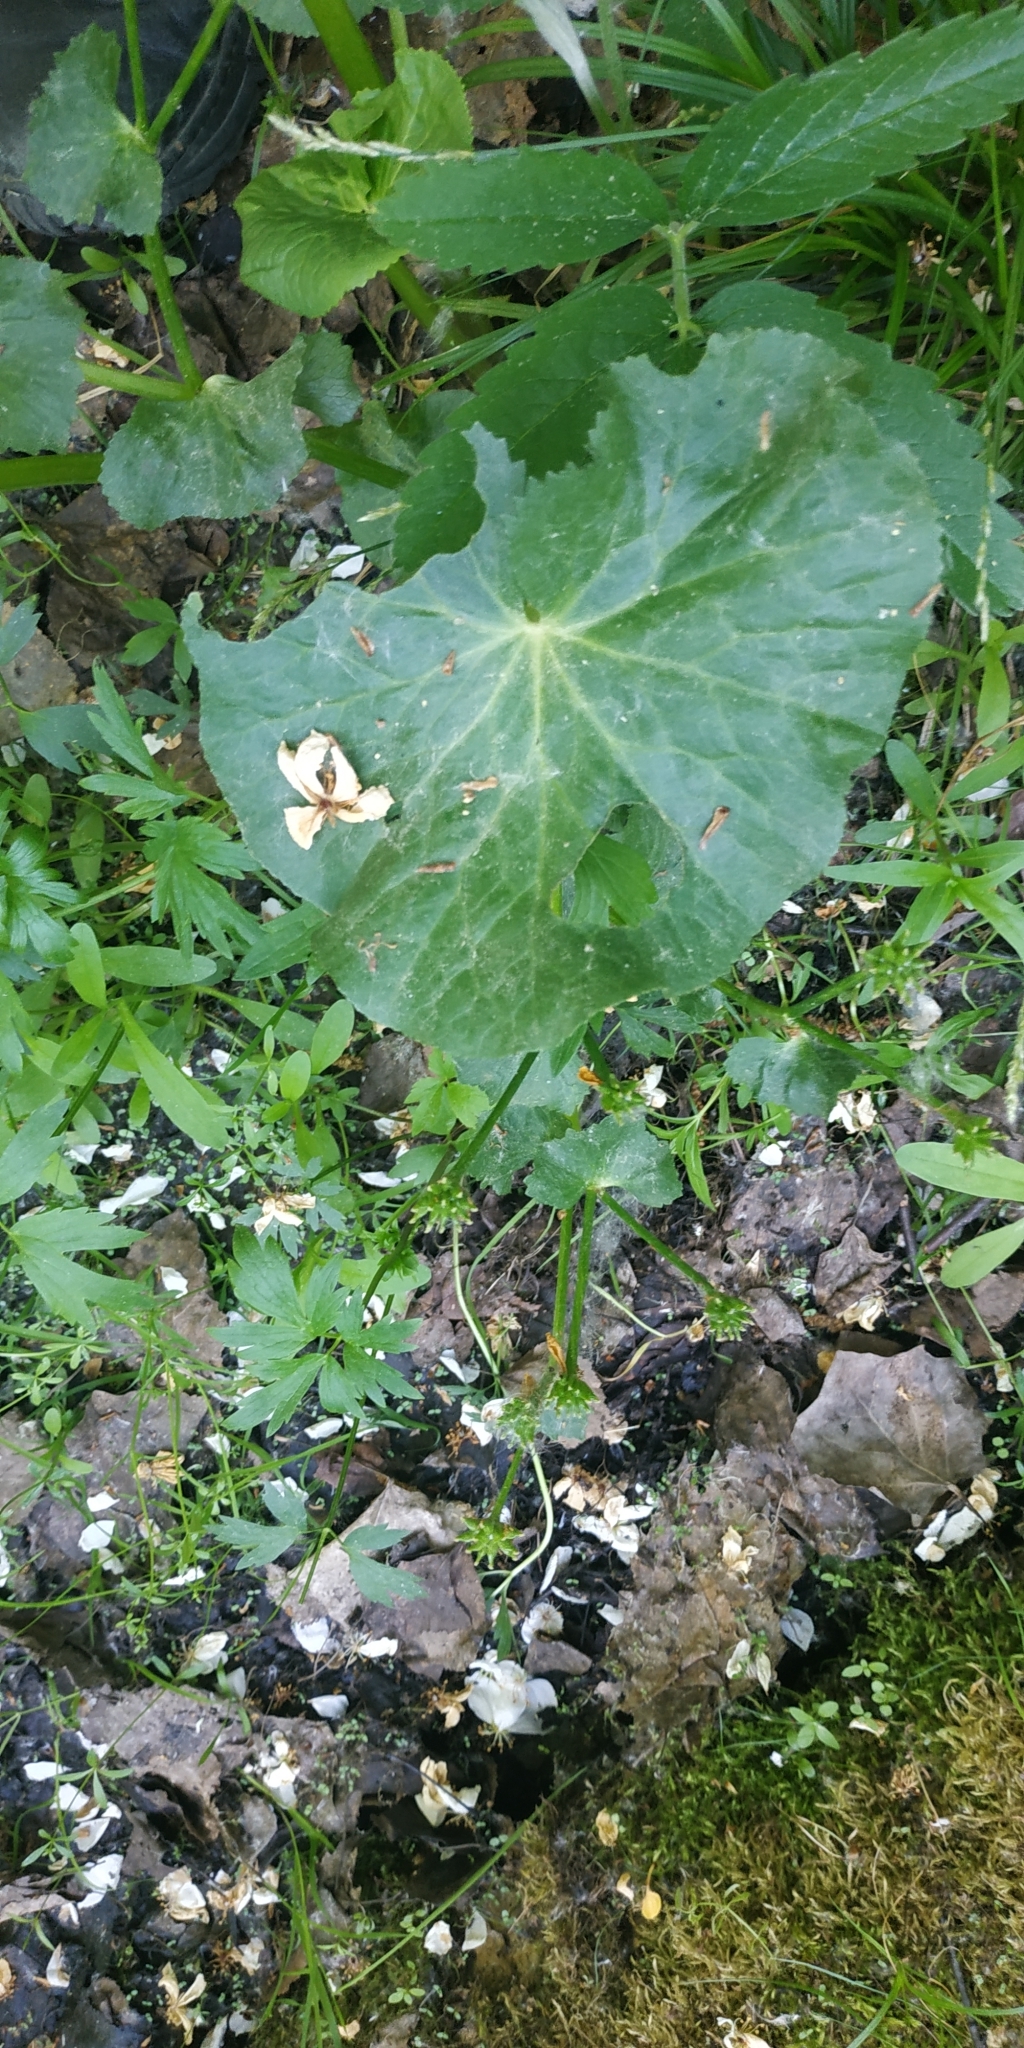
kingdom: Plantae
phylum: Tracheophyta
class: Magnoliopsida
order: Ranunculales
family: Ranunculaceae
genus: Caltha
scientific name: Caltha palustris
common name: Marsh marigold
